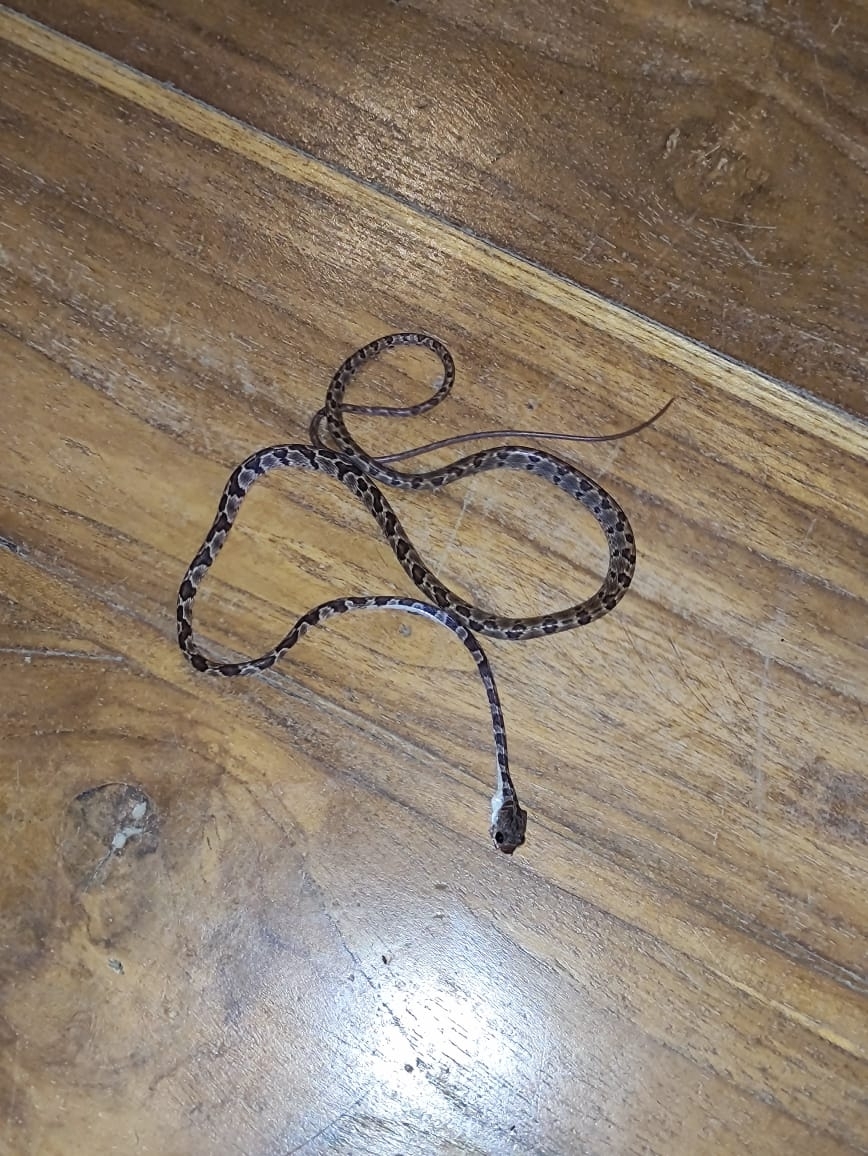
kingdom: Animalia
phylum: Chordata
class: Squamata
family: Colubridae
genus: Imantodes
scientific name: Imantodes gemmistratus
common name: Central american tree snake
